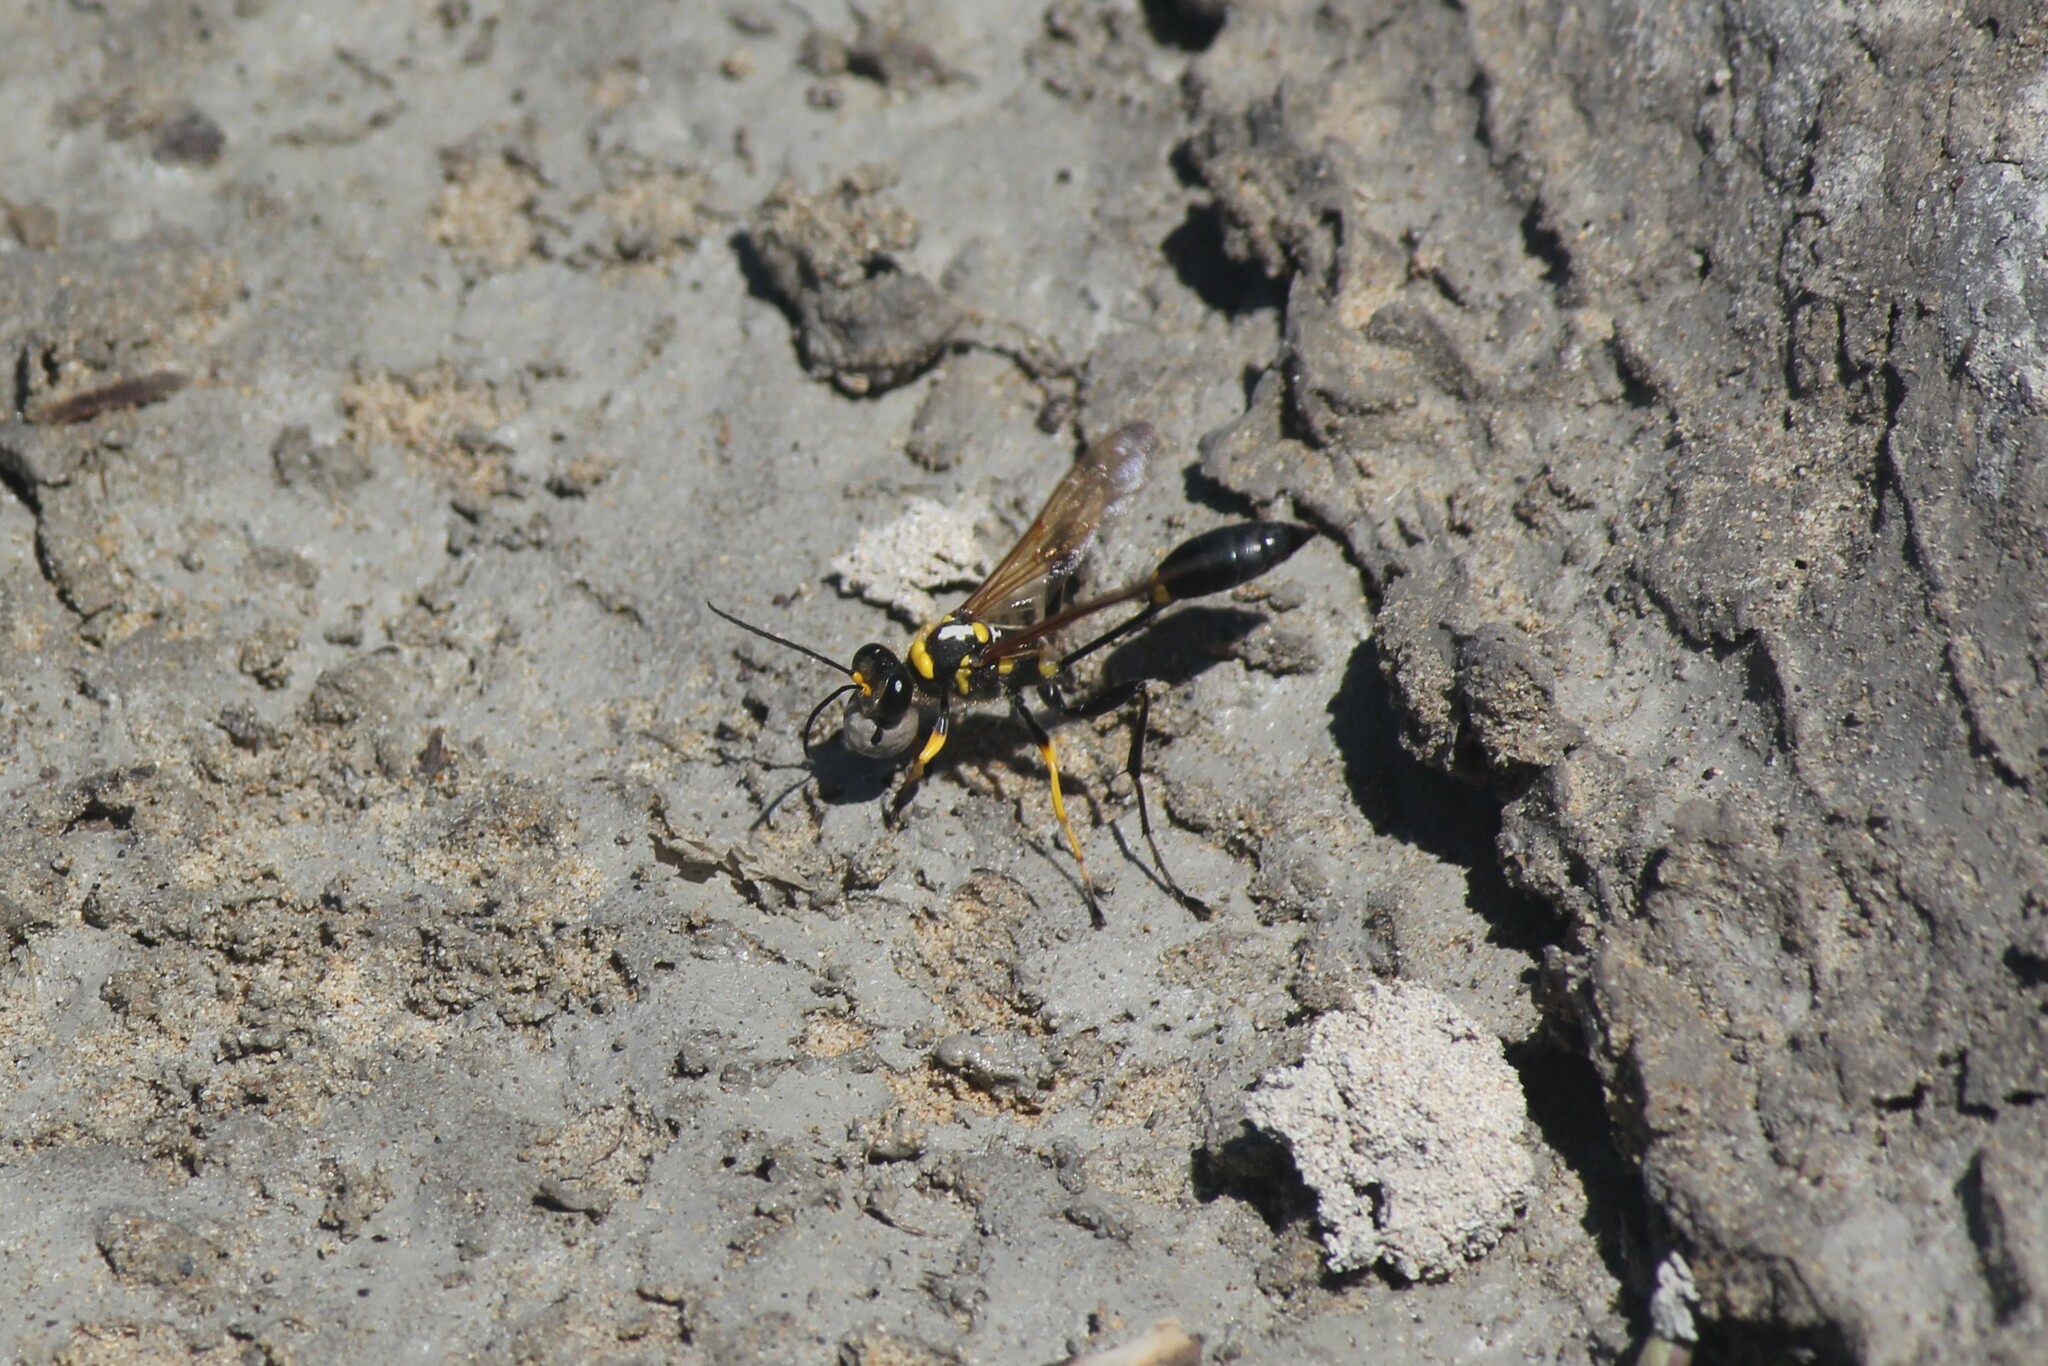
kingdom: Animalia
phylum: Arthropoda
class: Insecta
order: Hymenoptera
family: Sphecidae
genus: Sceliphron
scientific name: Sceliphron asiaticum
